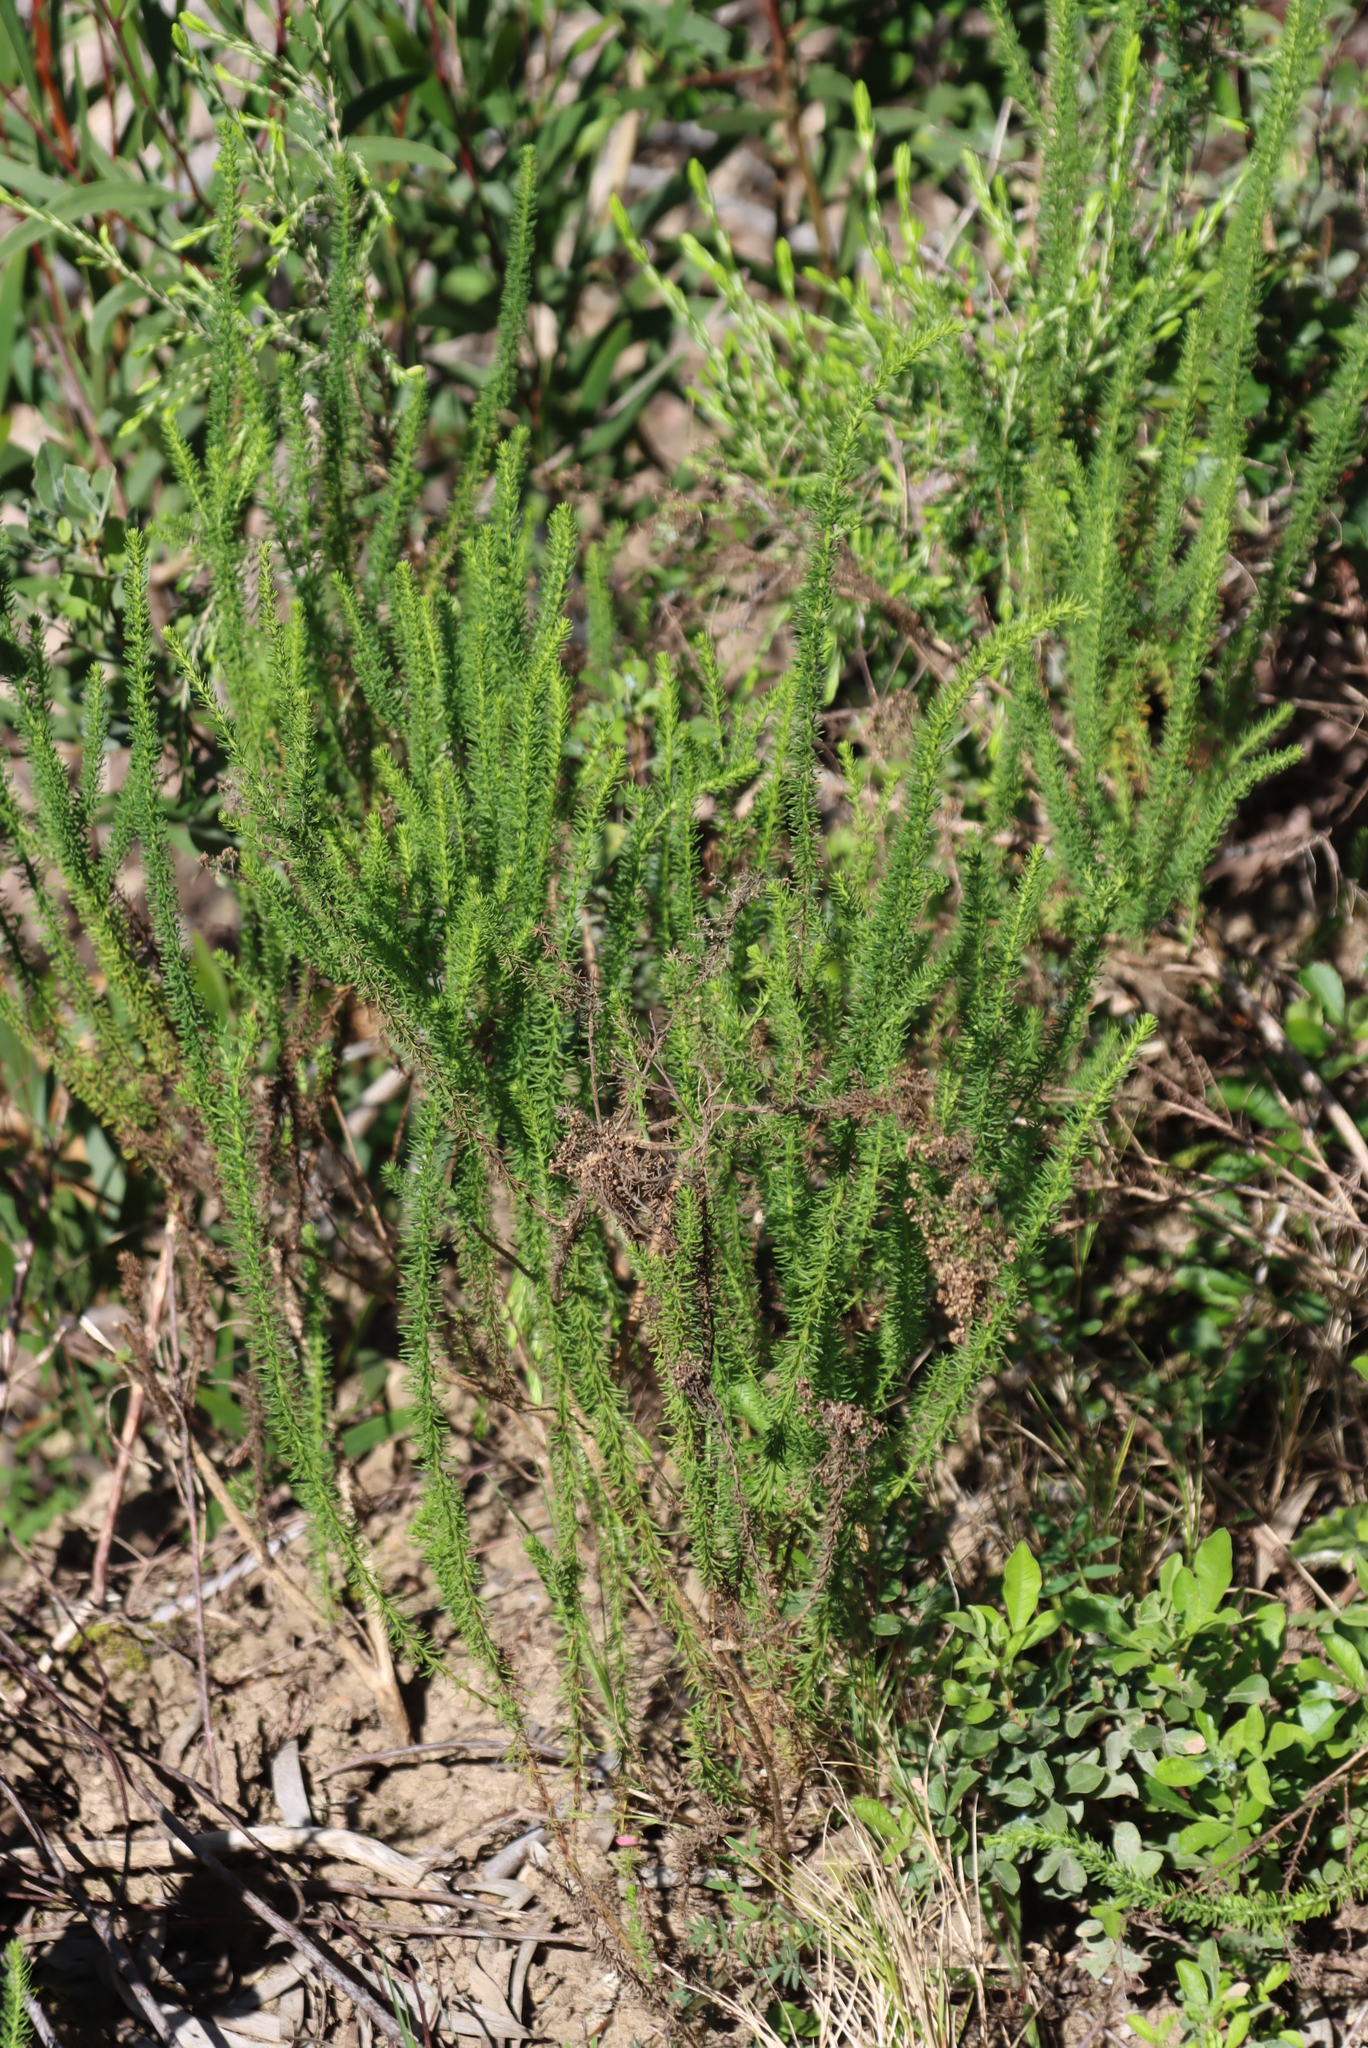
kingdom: Plantae
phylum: Tracheophyta
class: Magnoliopsida
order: Lamiales
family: Scrophulariaceae
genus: Selago
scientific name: Selago corymbosa
